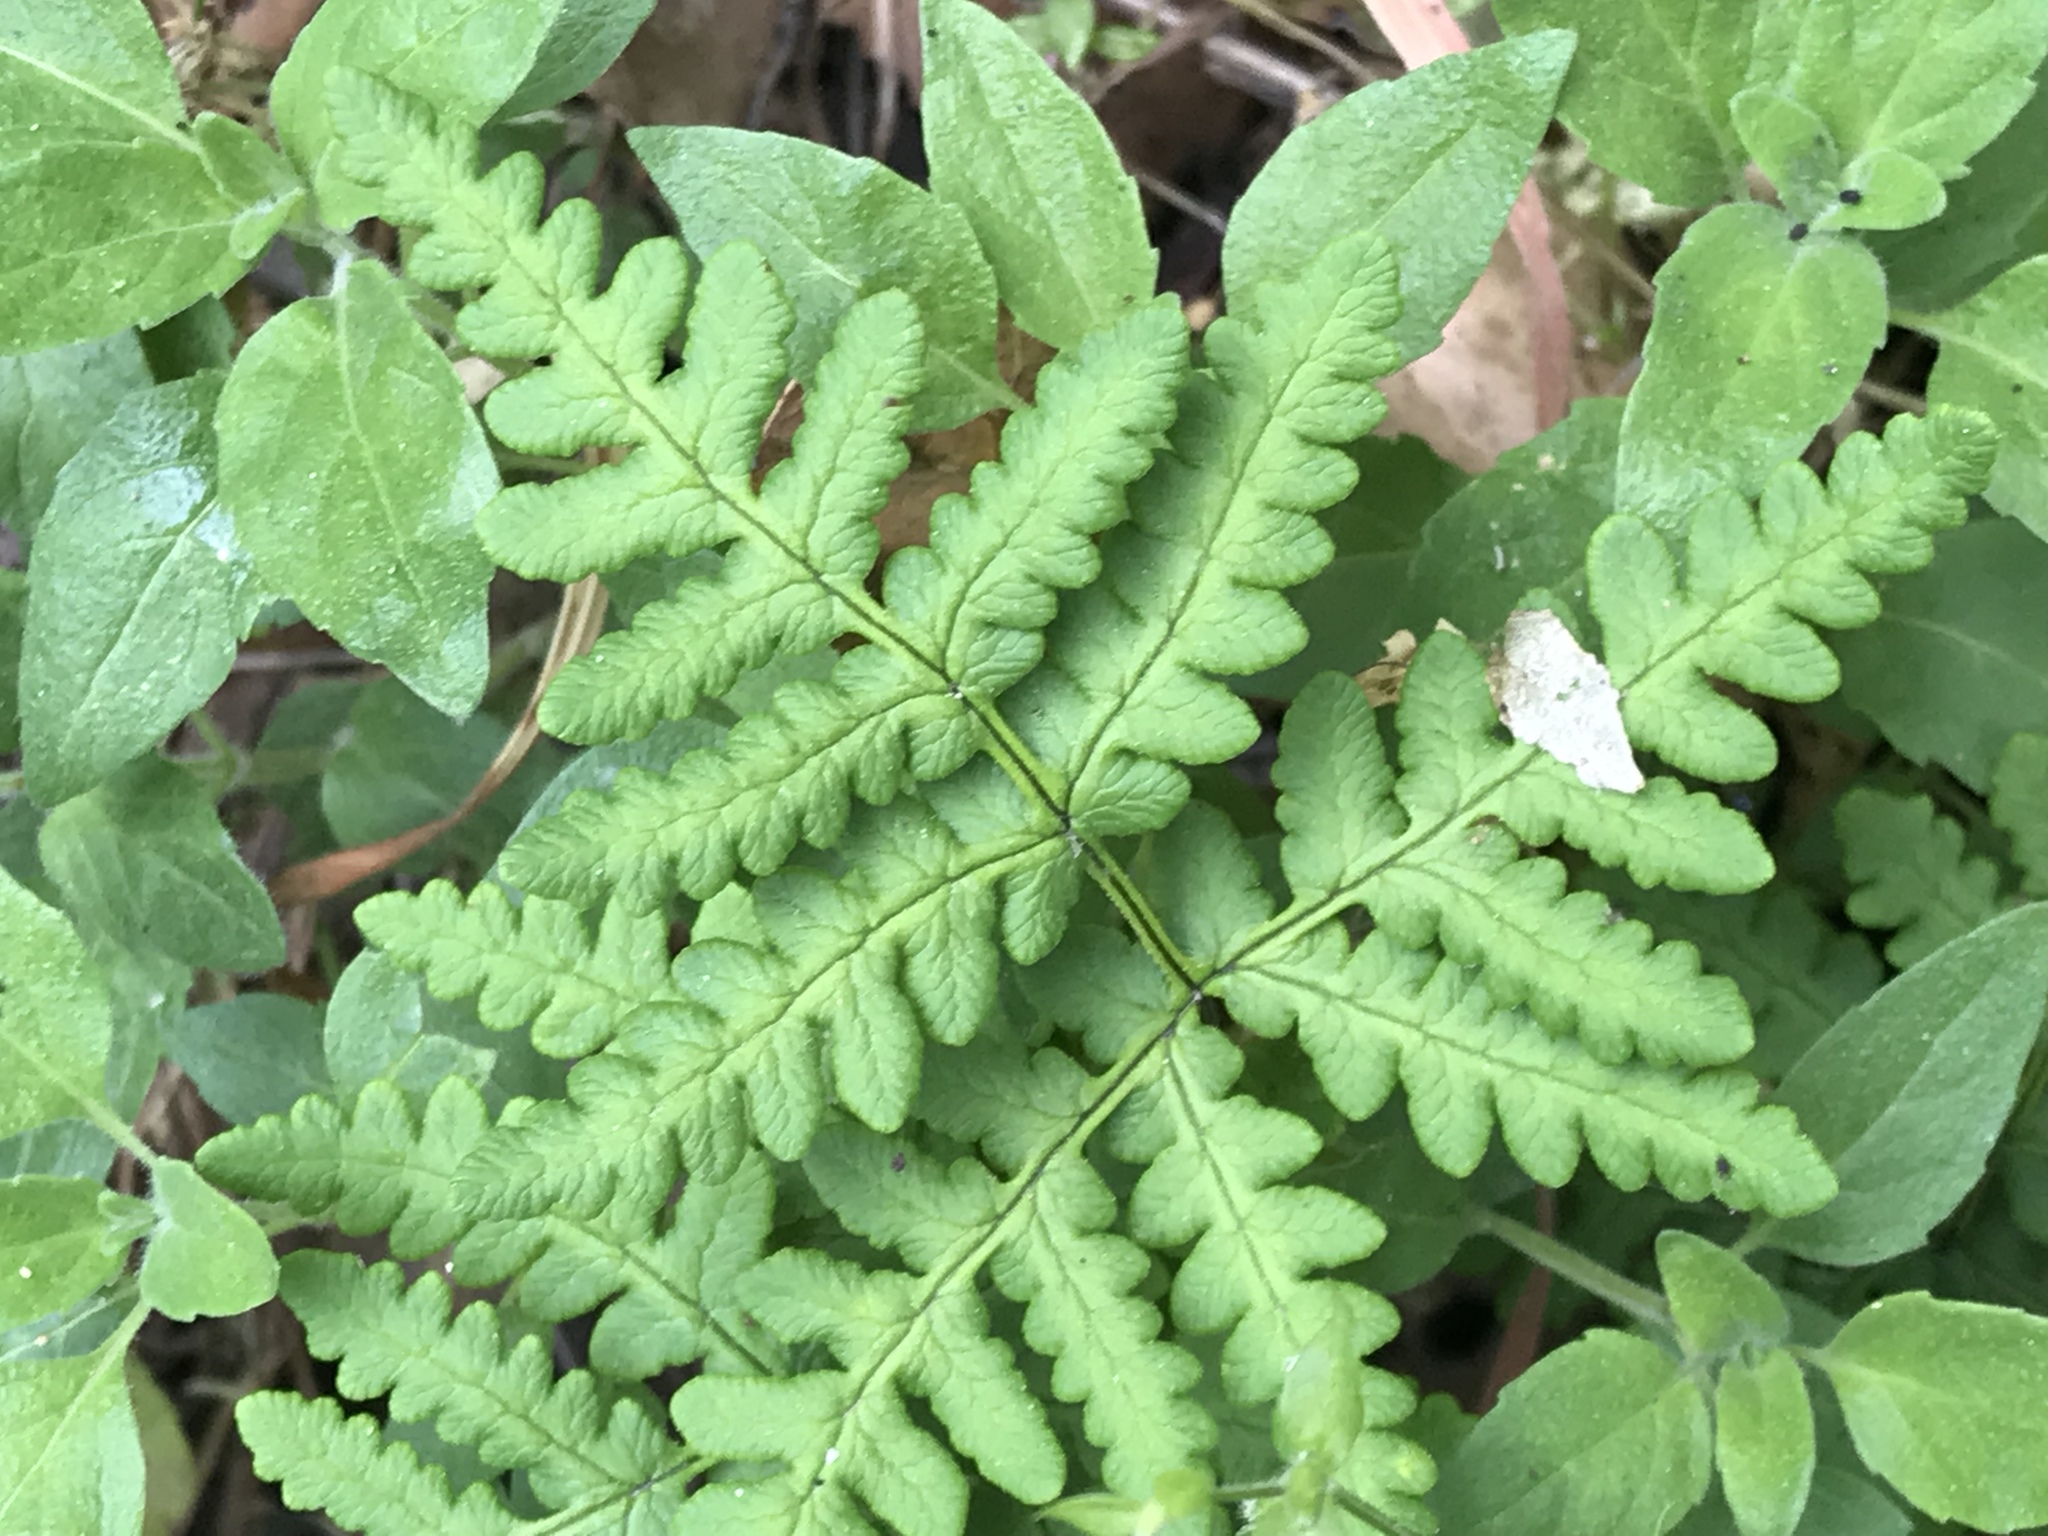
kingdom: Plantae
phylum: Tracheophyta
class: Polypodiopsida
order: Polypodiales
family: Pteridaceae
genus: Pentagramma
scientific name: Pentagramma triangularis
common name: Gold fern
